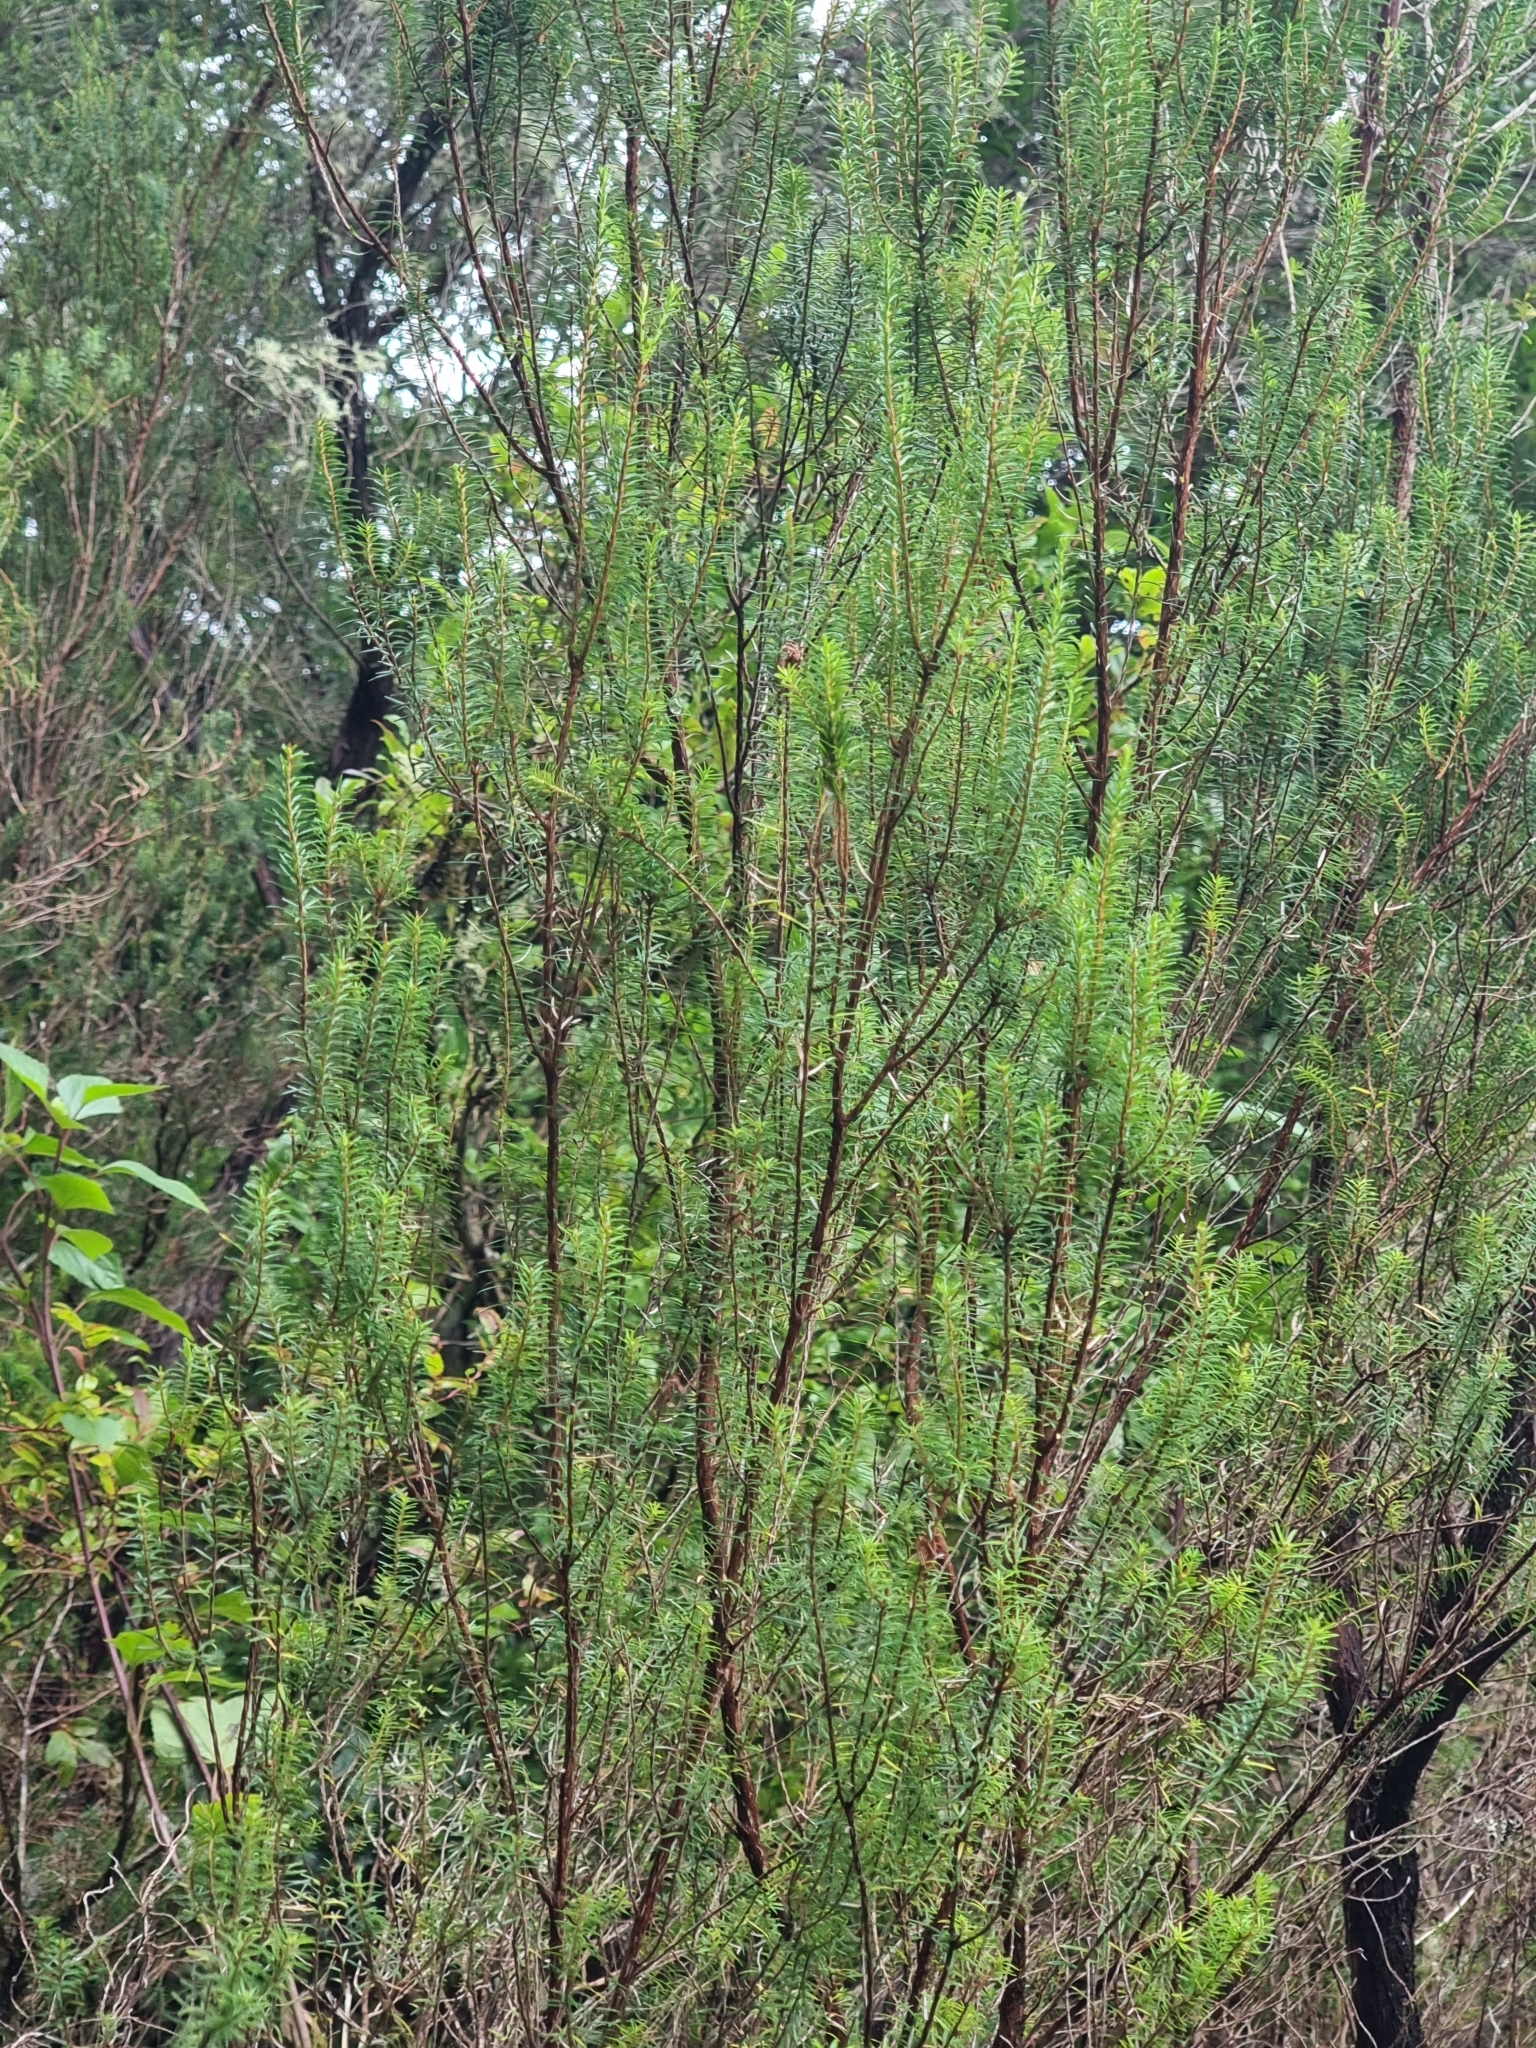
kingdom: Plantae
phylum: Tracheophyta
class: Magnoliopsida
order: Ericales
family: Ericaceae
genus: Erica
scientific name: Erica platycodon
